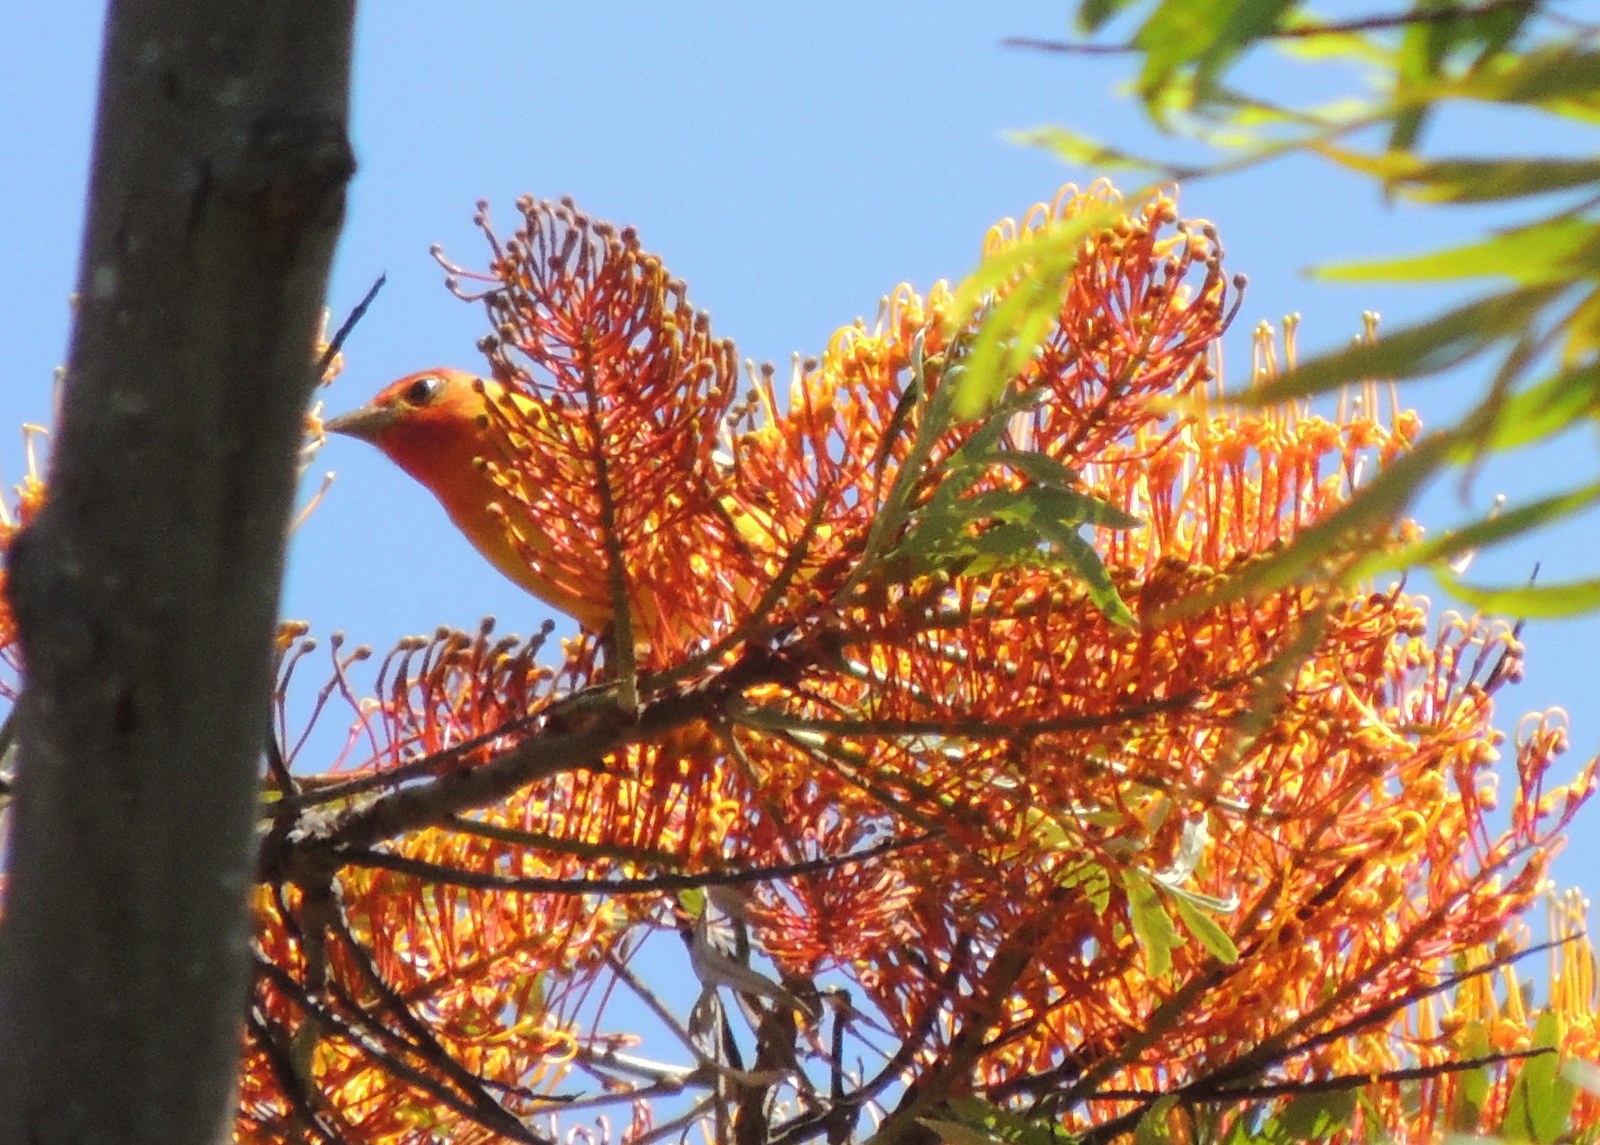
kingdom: Animalia
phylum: Chordata
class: Aves
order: Passeriformes
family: Cardinalidae
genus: Piranga
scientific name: Piranga ludoviciana
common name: Western tanager
